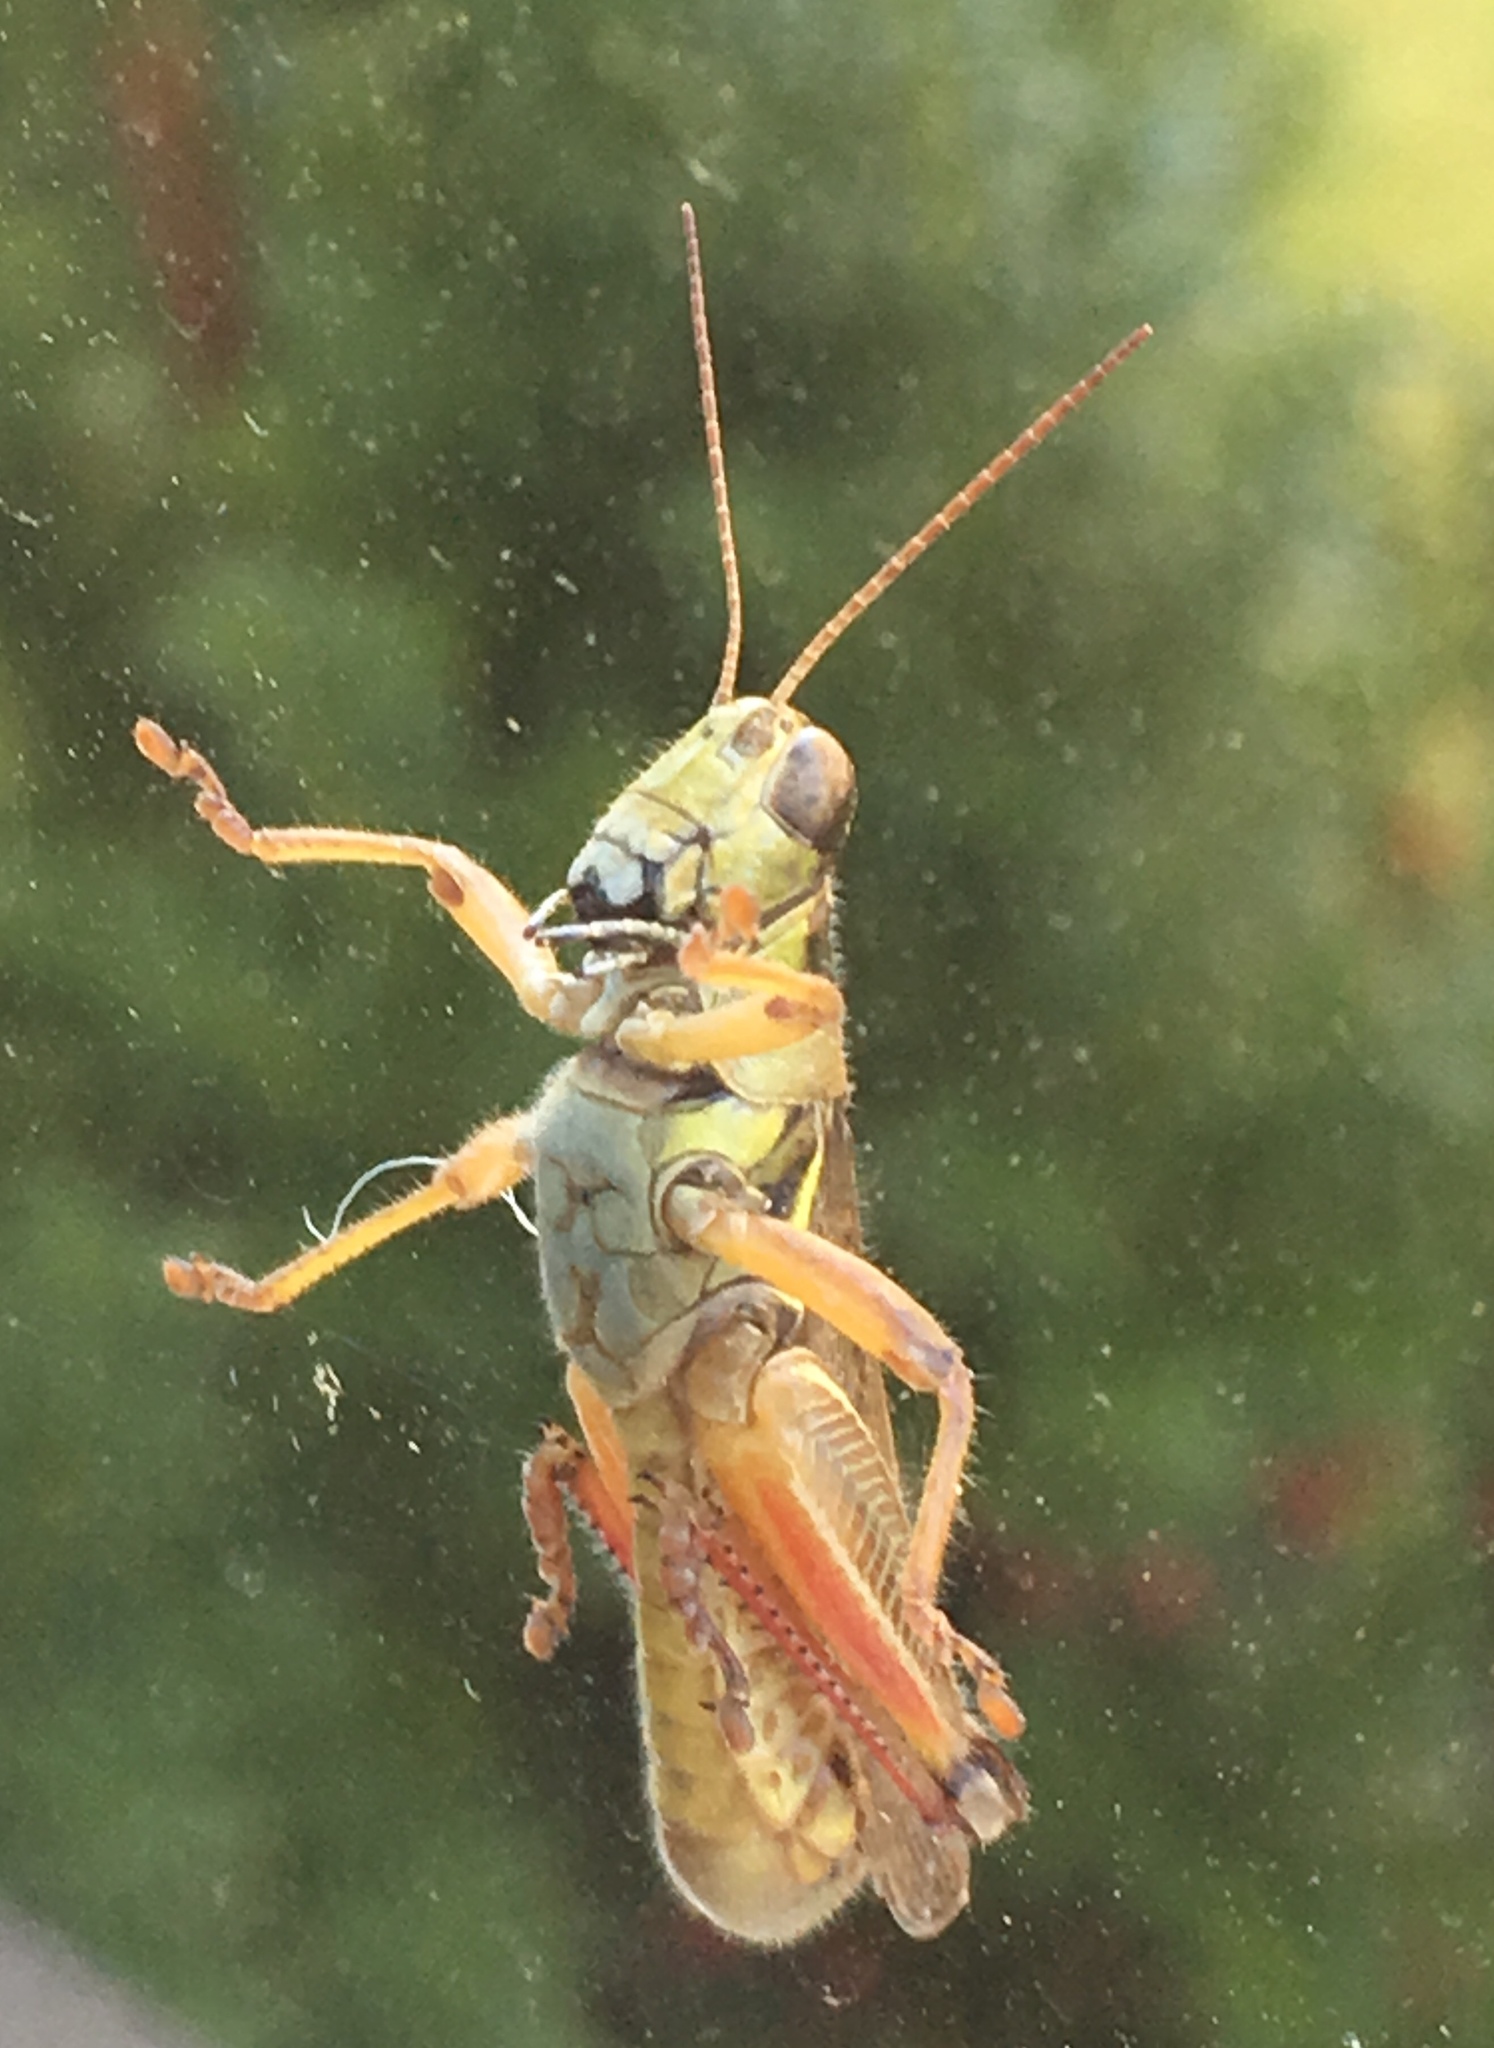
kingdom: Animalia
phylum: Arthropoda
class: Insecta
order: Orthoptera
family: Acrididae
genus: Melanoplus
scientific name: Melanoplus femurrubrum
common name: Red-legged grasshopper
